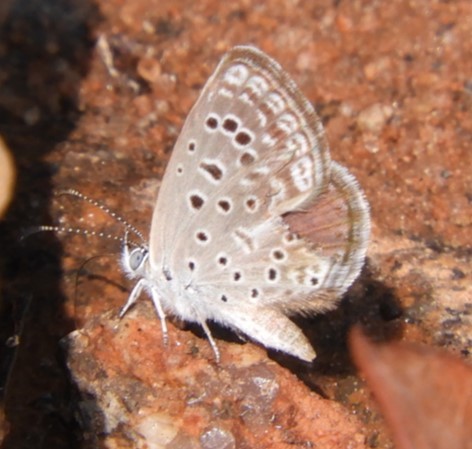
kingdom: Animalia
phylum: Arthropoda
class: Insecta
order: Lepidoptera
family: Lycaenidae
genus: Actizera
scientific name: Actizera lucida
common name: Rayed blue
